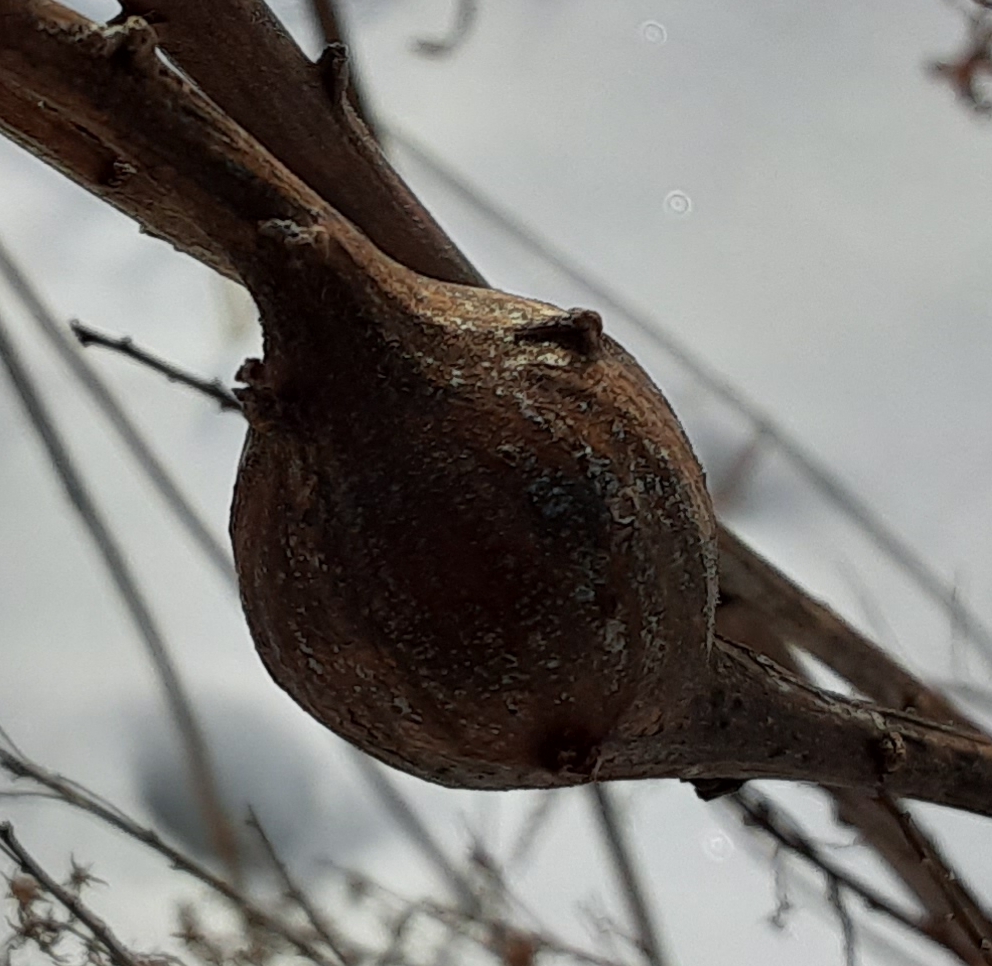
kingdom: Animalia
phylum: Arthropoda
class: Insecta
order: Diptera
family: Tephritidae
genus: Eurosta
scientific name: Eurosta solidaginis
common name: Goldenrod gall fly
